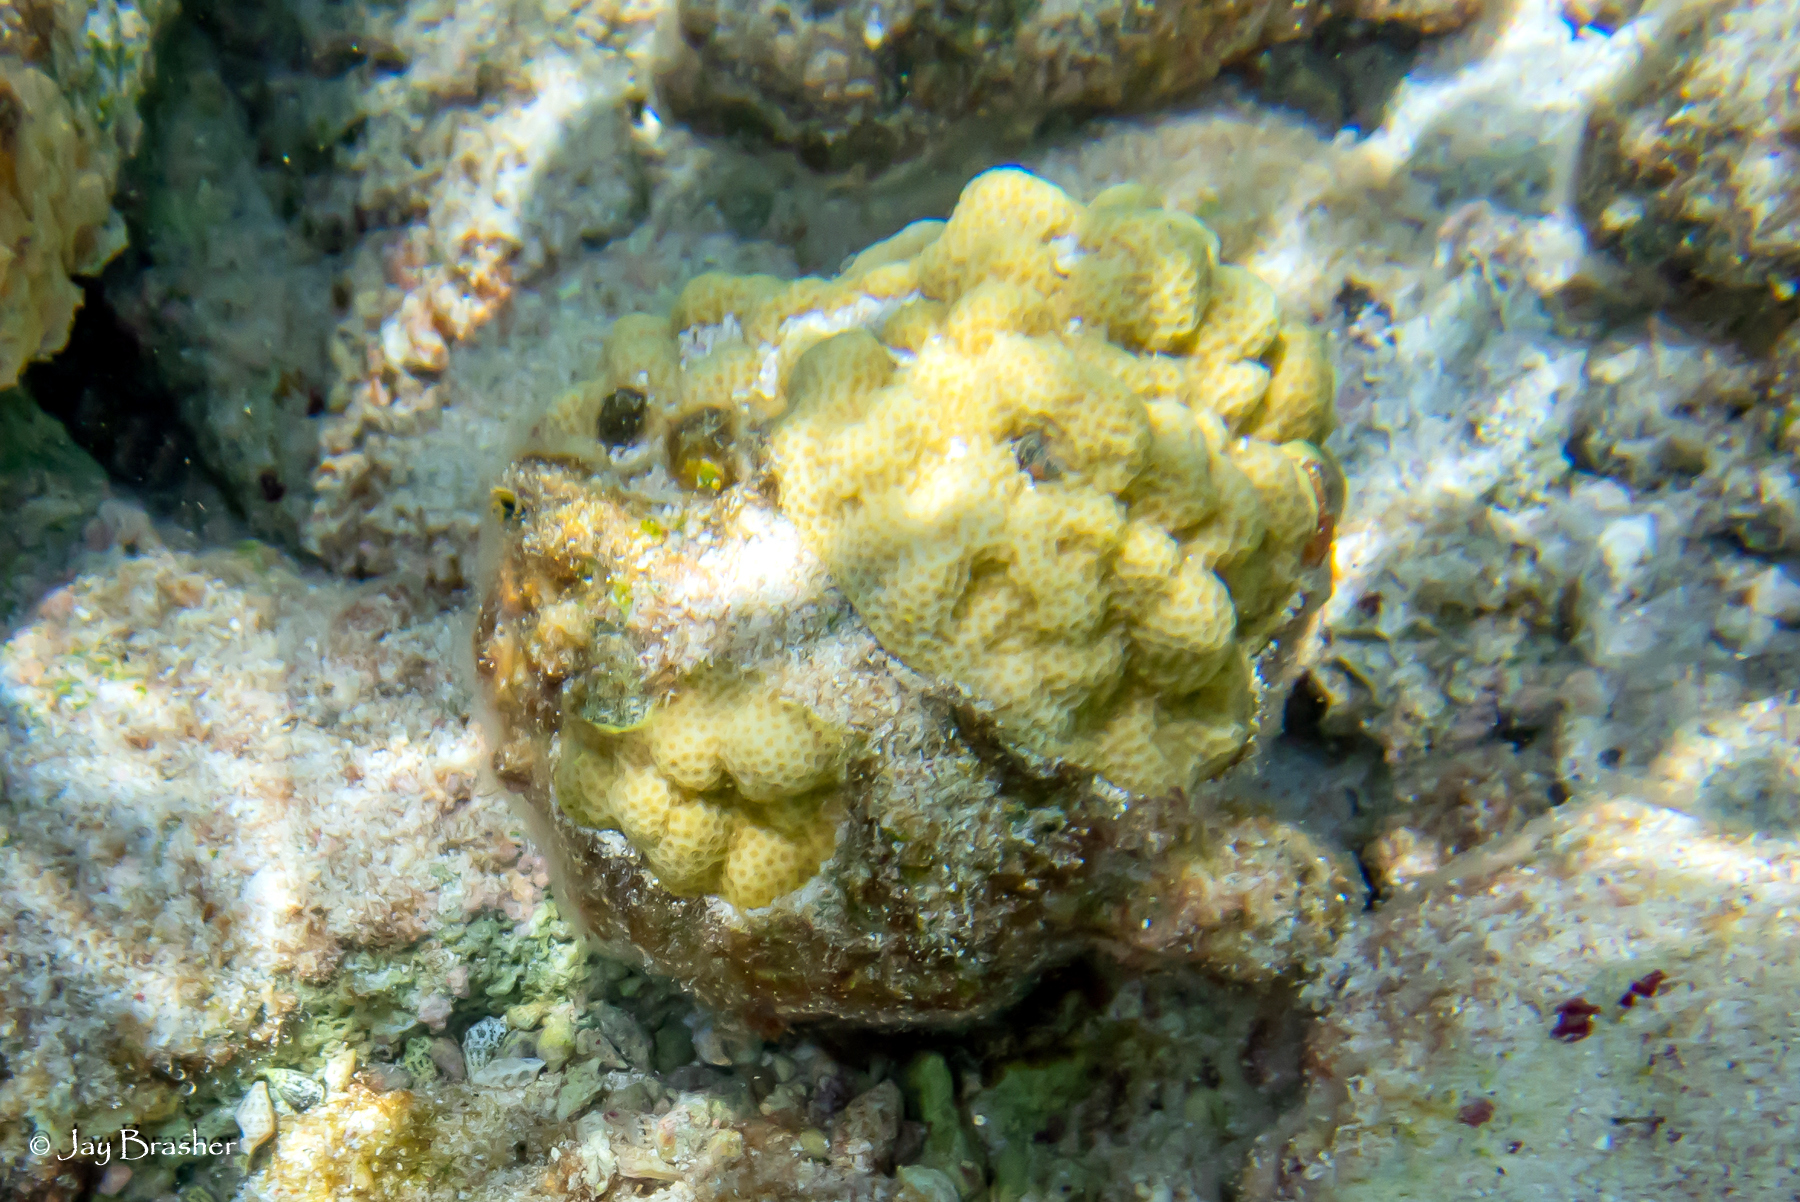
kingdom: Animalia
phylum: Cnidaria
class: Anthozoa
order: Scleractinia
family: Poritidae
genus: Porites
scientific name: Porites astreoides
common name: Mustard hill coral
